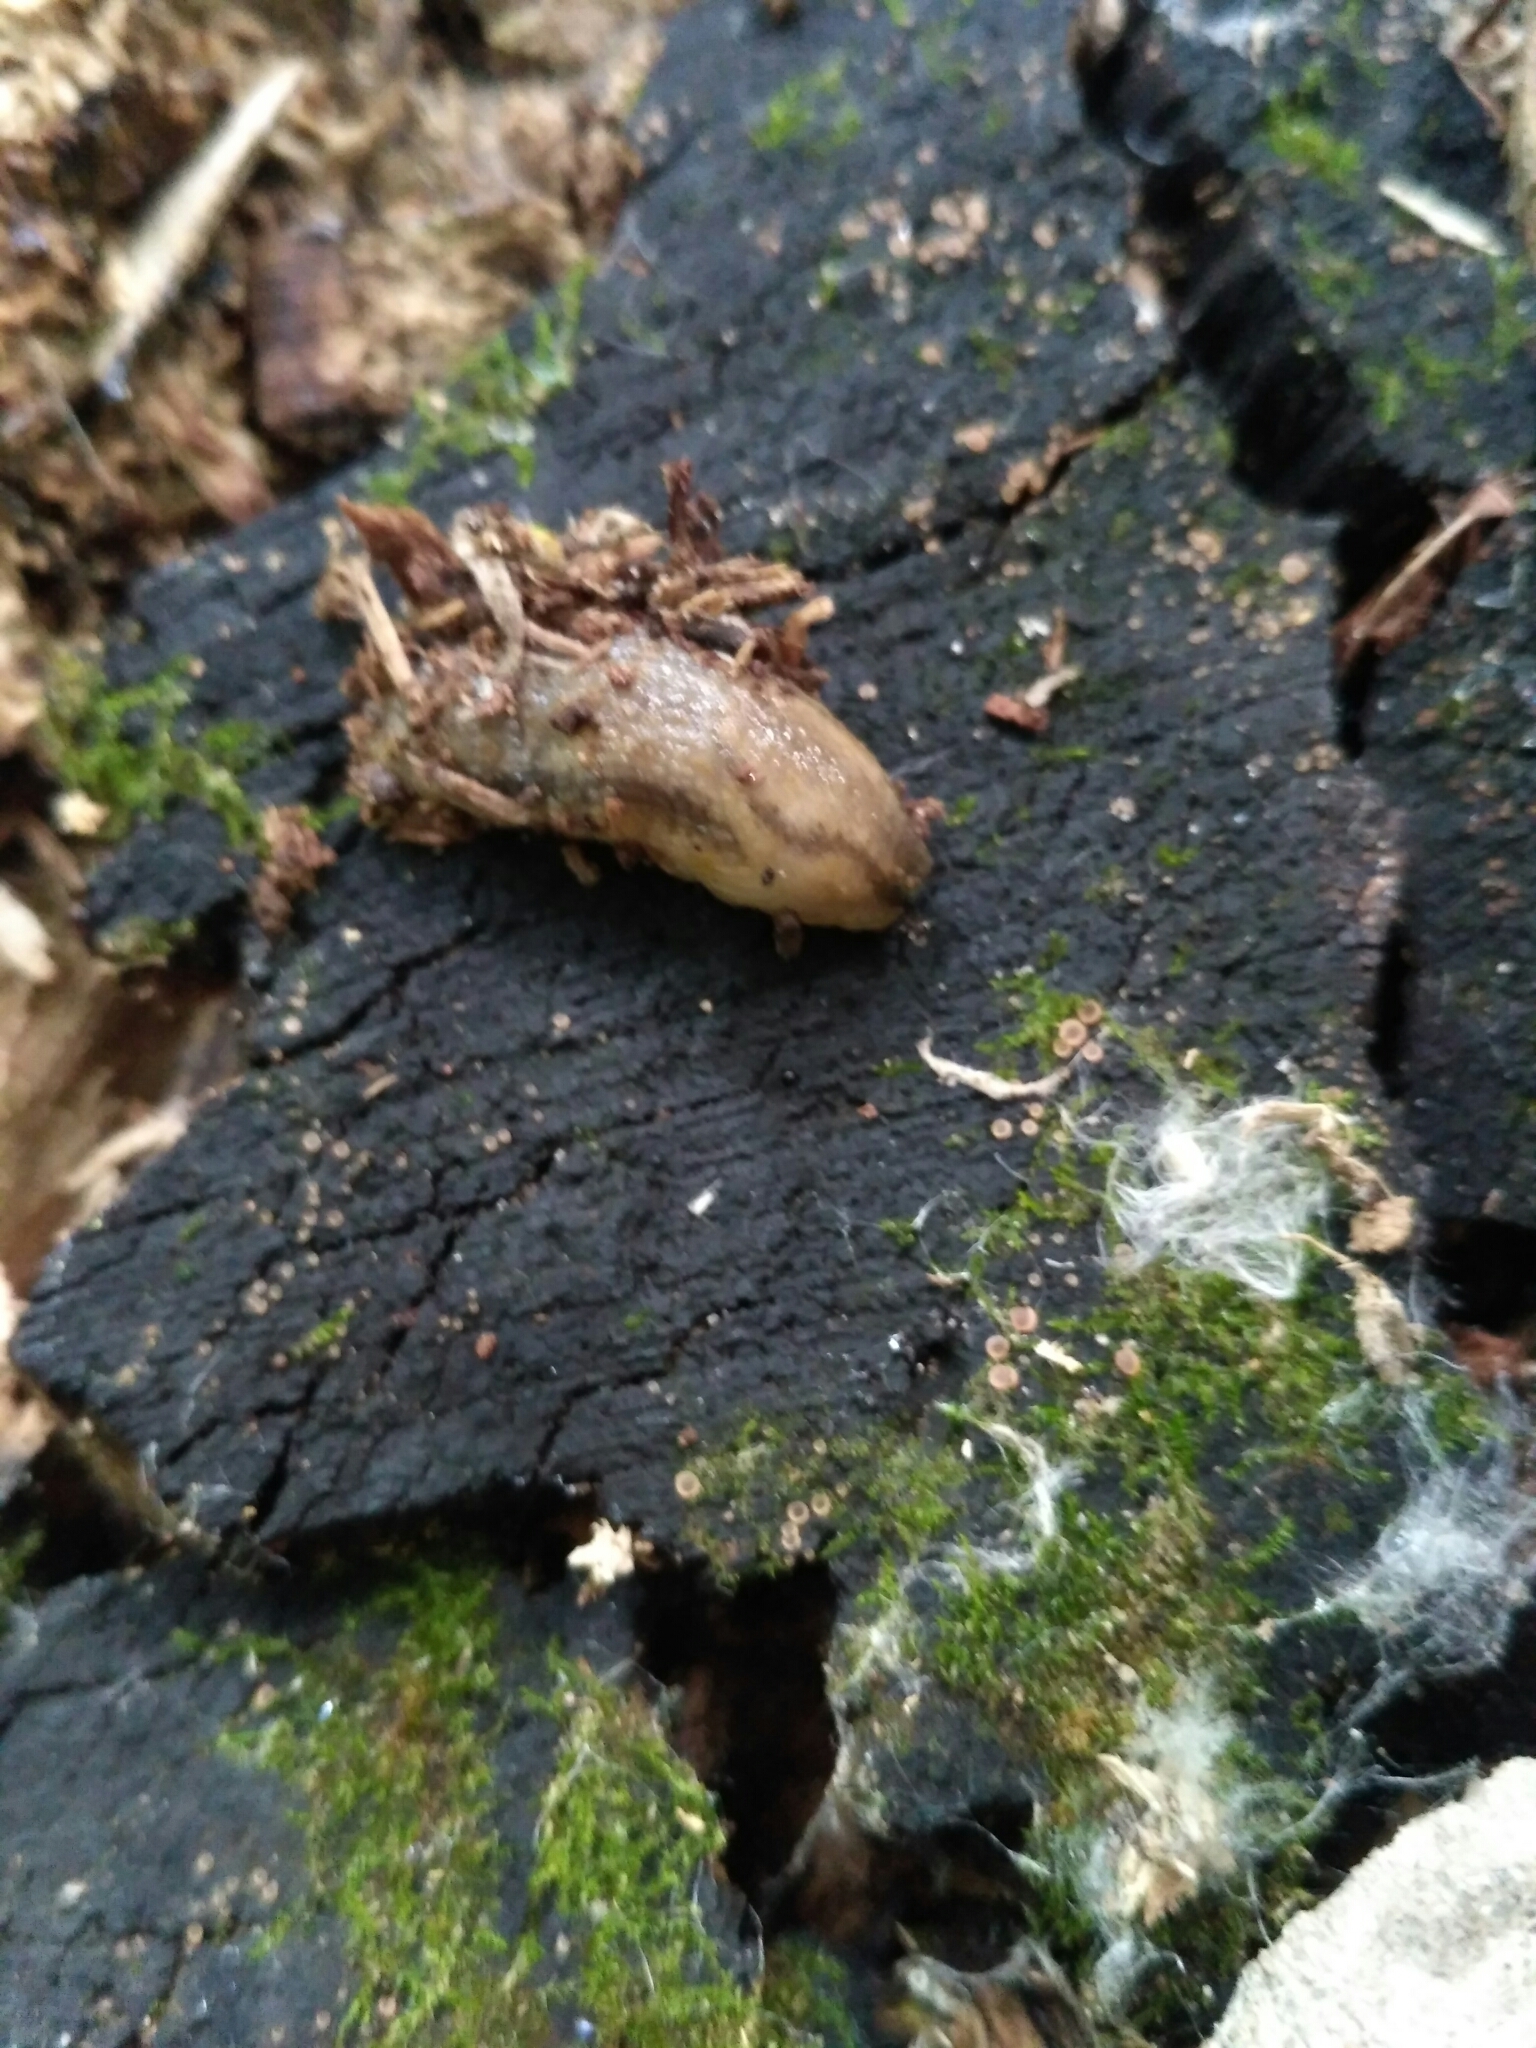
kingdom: Animalia
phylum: Mollusca
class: Gastropoda
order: Stylommatophora
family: Arionidae
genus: Arion
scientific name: Arion fasciatus
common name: Orange-banded arion
